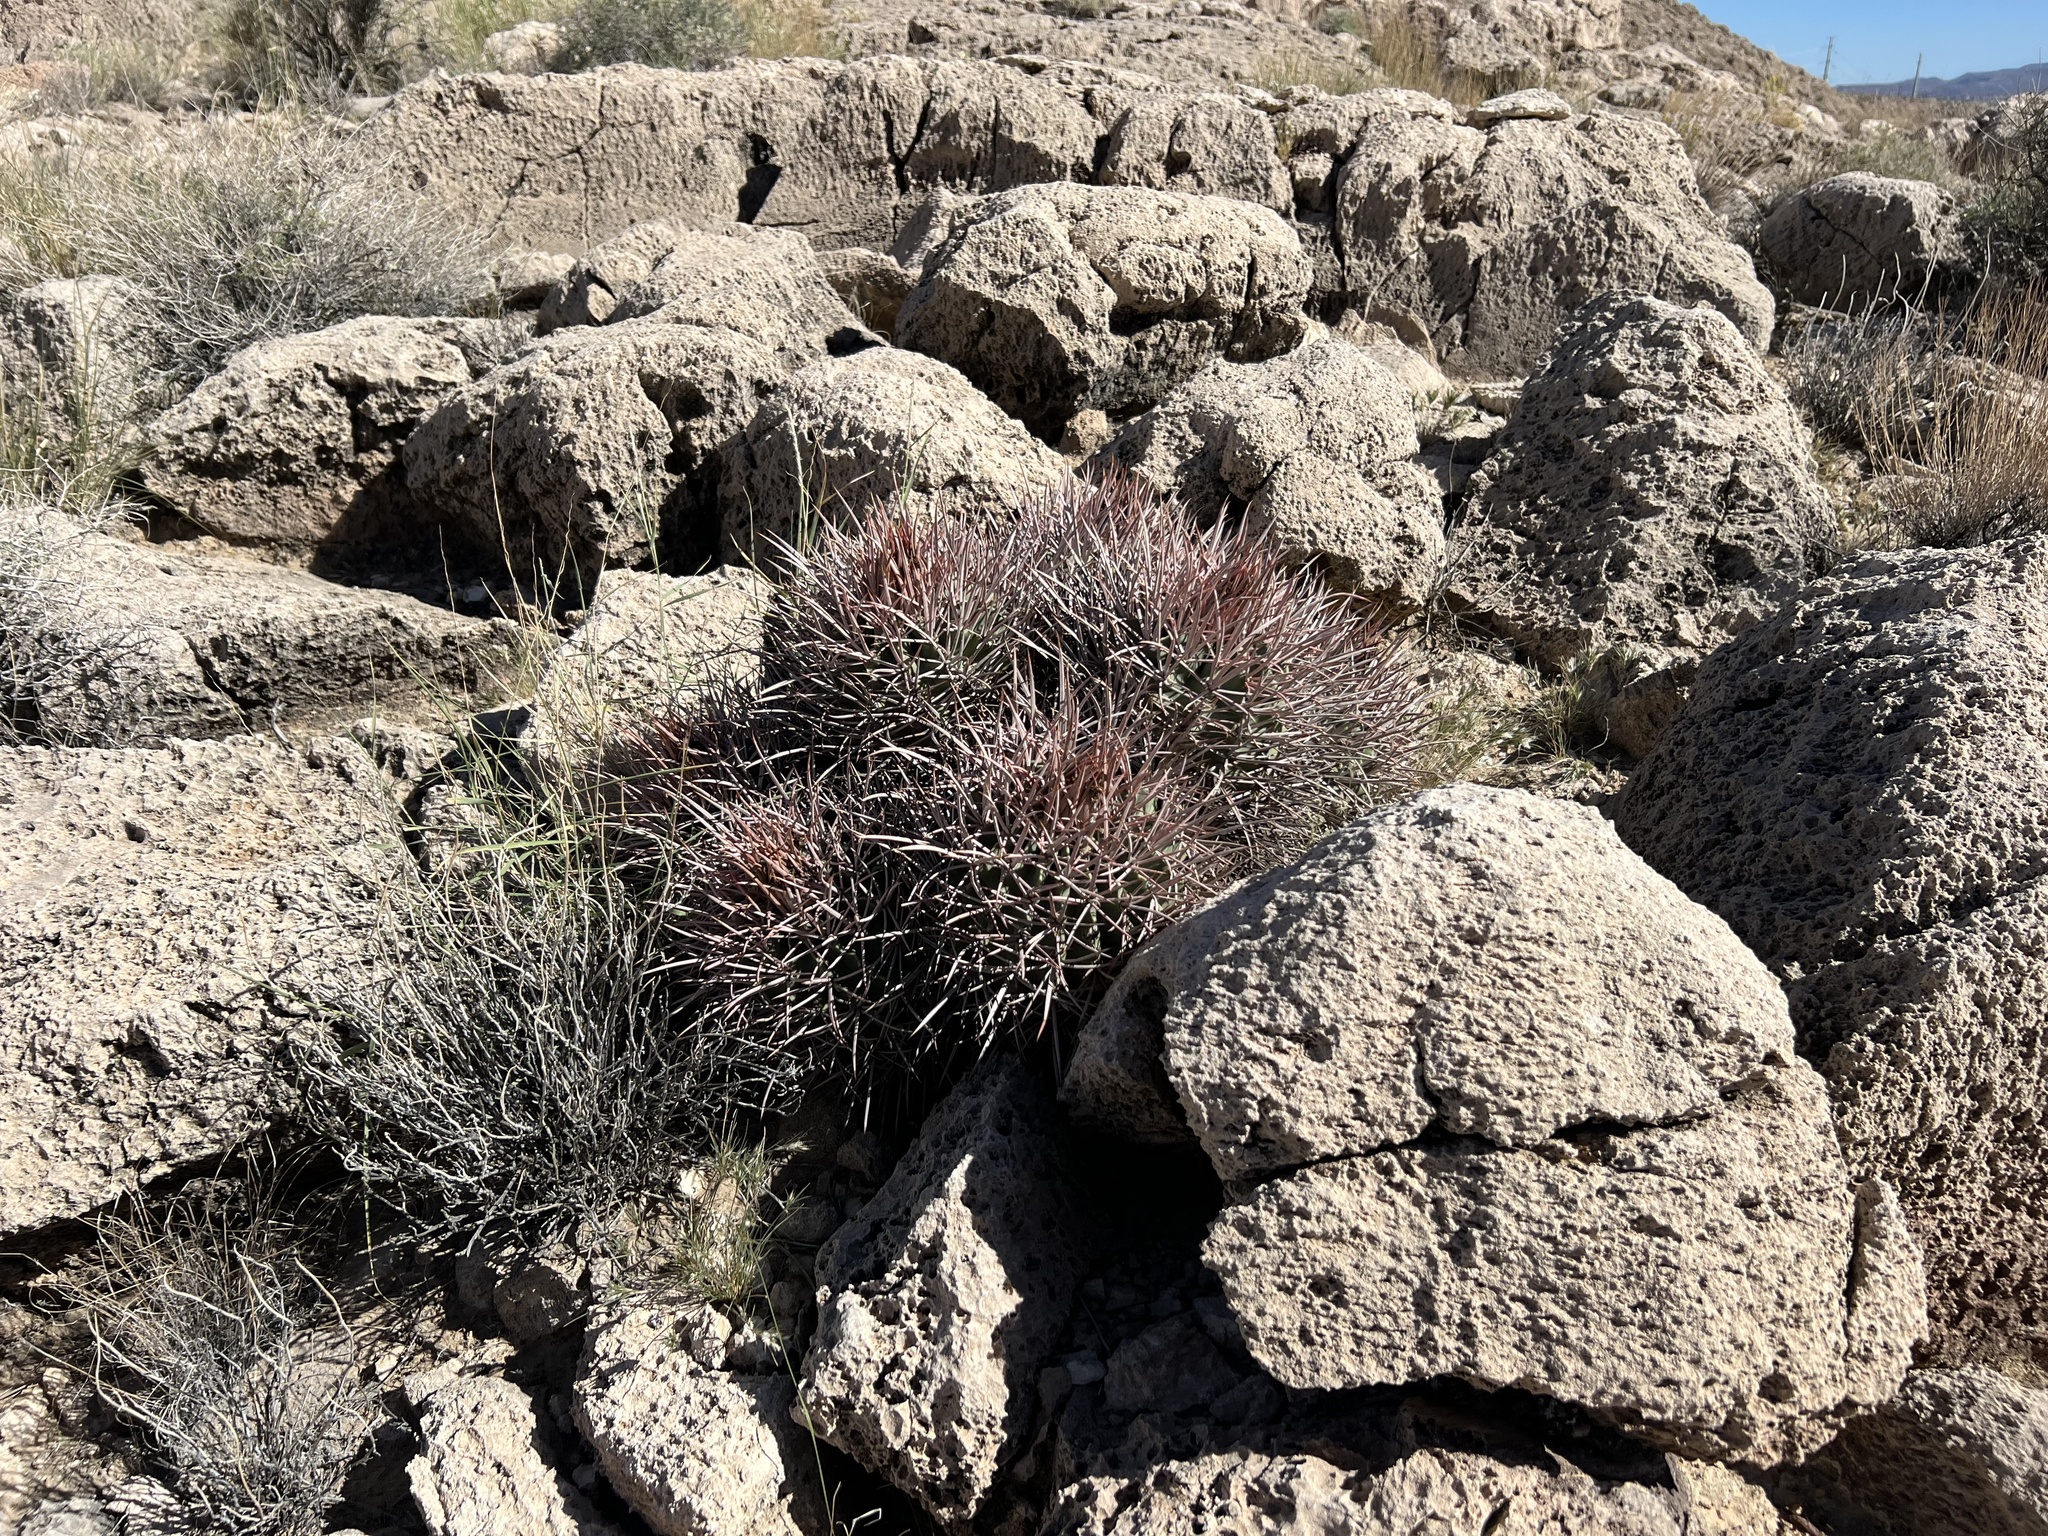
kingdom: Plantae
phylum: Tracheophyta
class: Magnoliopsida
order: Caryophyllales
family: Cactaceae
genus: Echinocactus
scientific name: Echinocactus polycephalus
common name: Cottontop cactus
